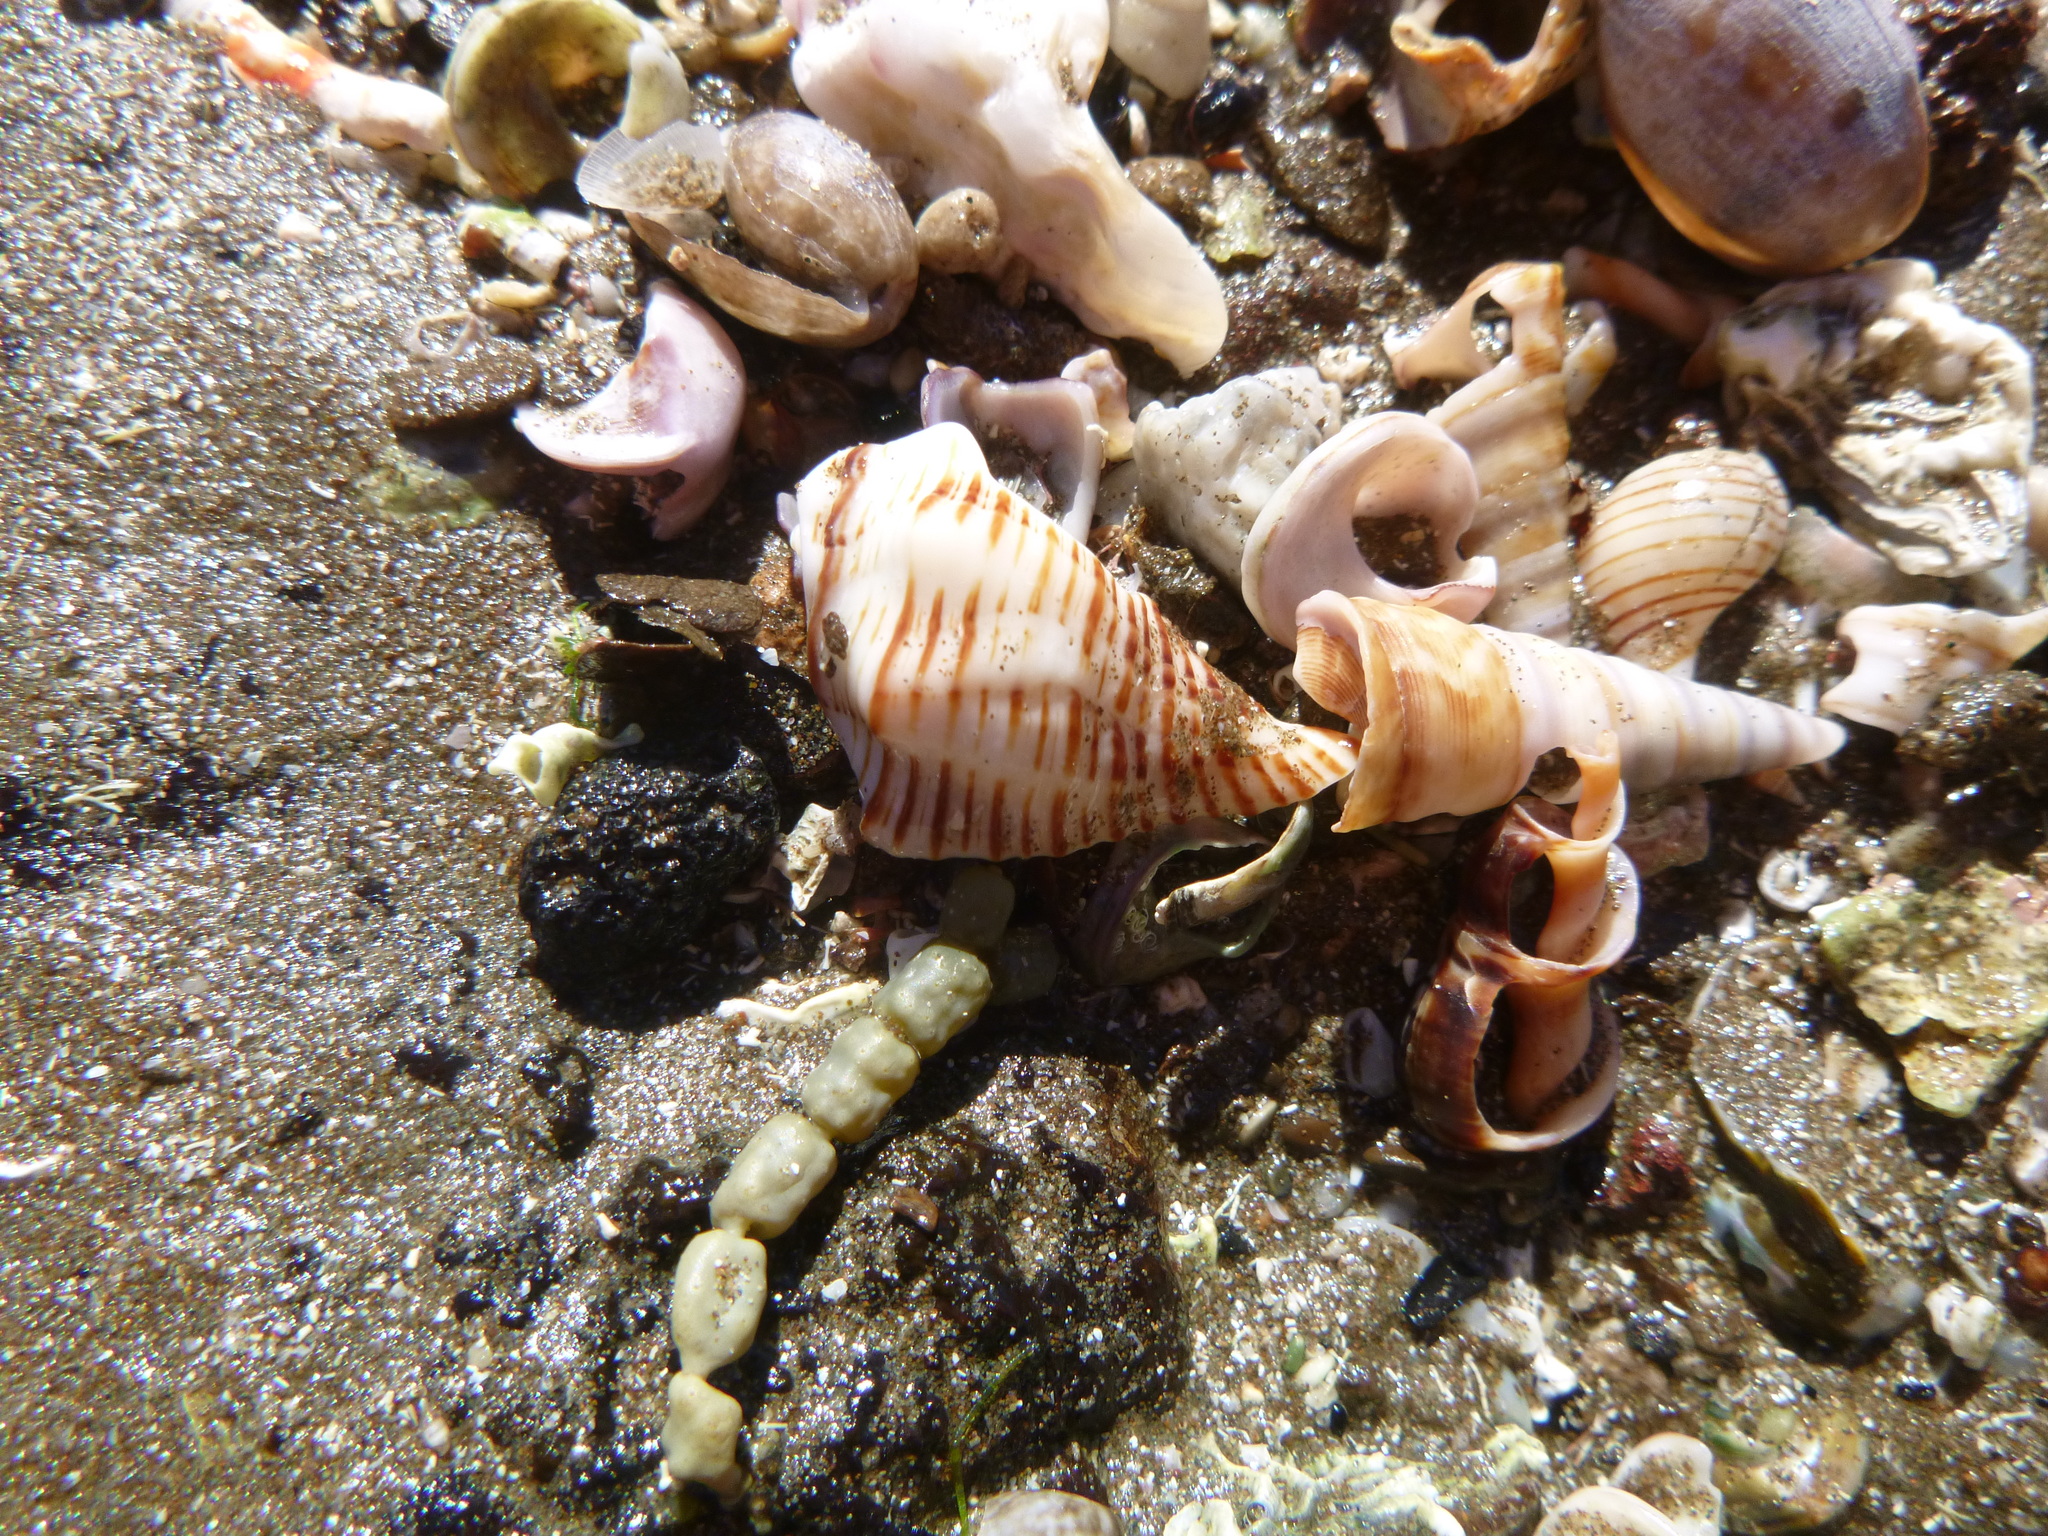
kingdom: Animalia
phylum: Mollusca
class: Gastropoda
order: Neogastropoda
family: Austrosiphonidae
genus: Penion
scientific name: Penion sulcatus
